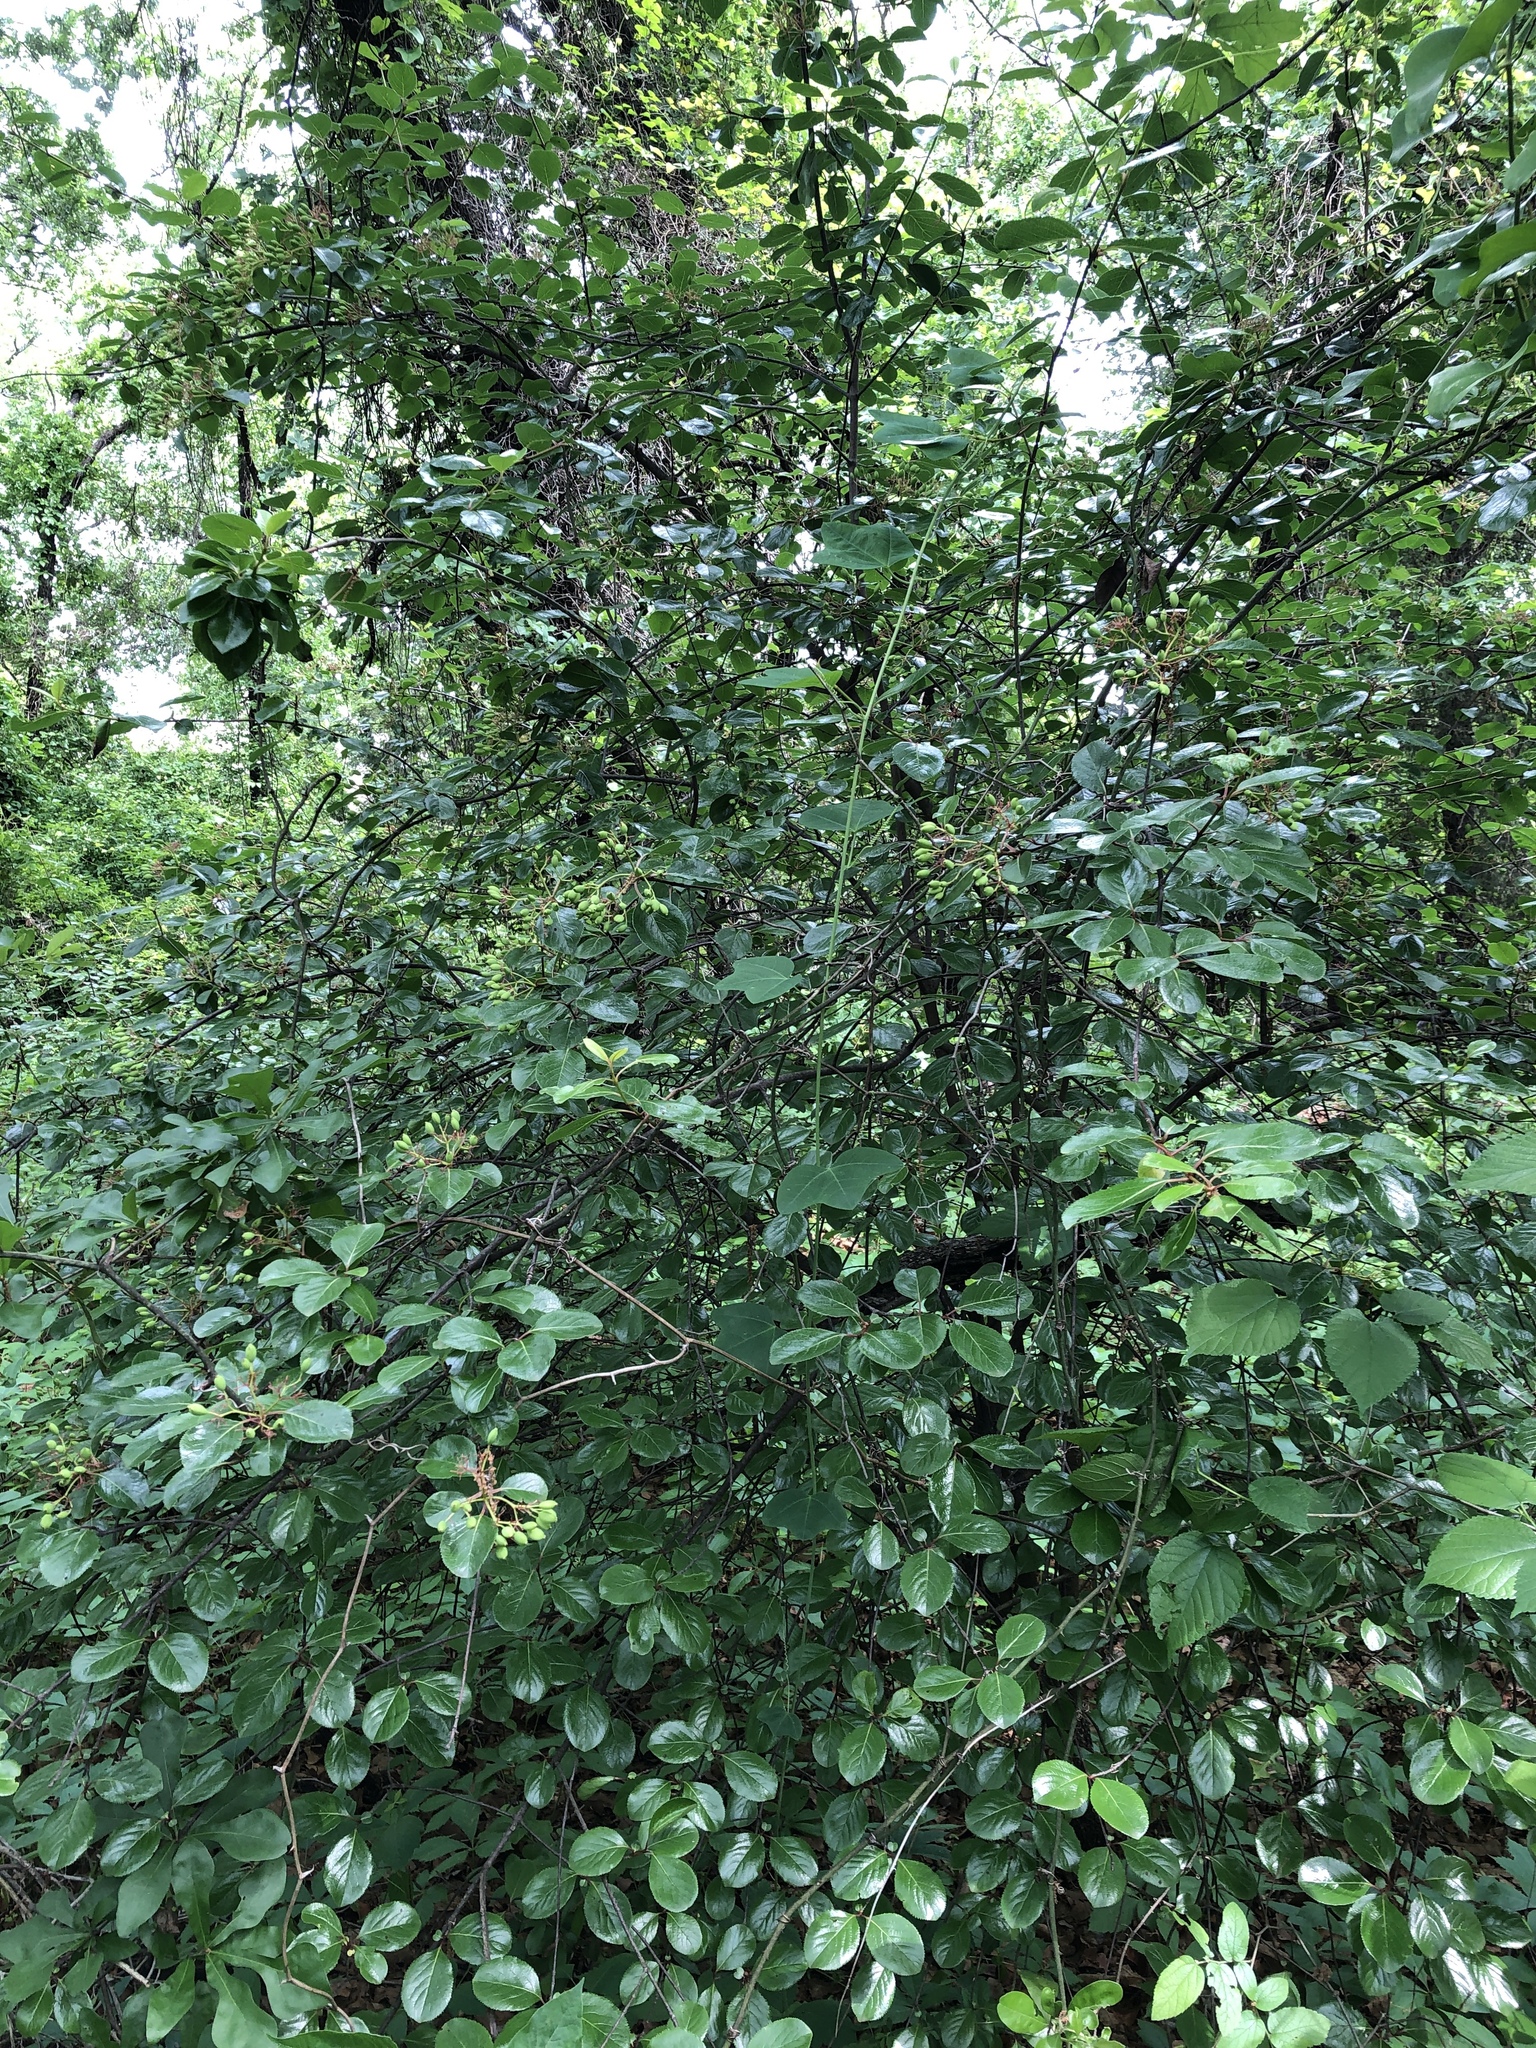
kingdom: Plantae
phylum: Tracheophyta
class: Magnoliopsida
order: Dipsacales
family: Viburnaceae
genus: Viburnum
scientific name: Viburnum rufidulum
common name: Blue haw
